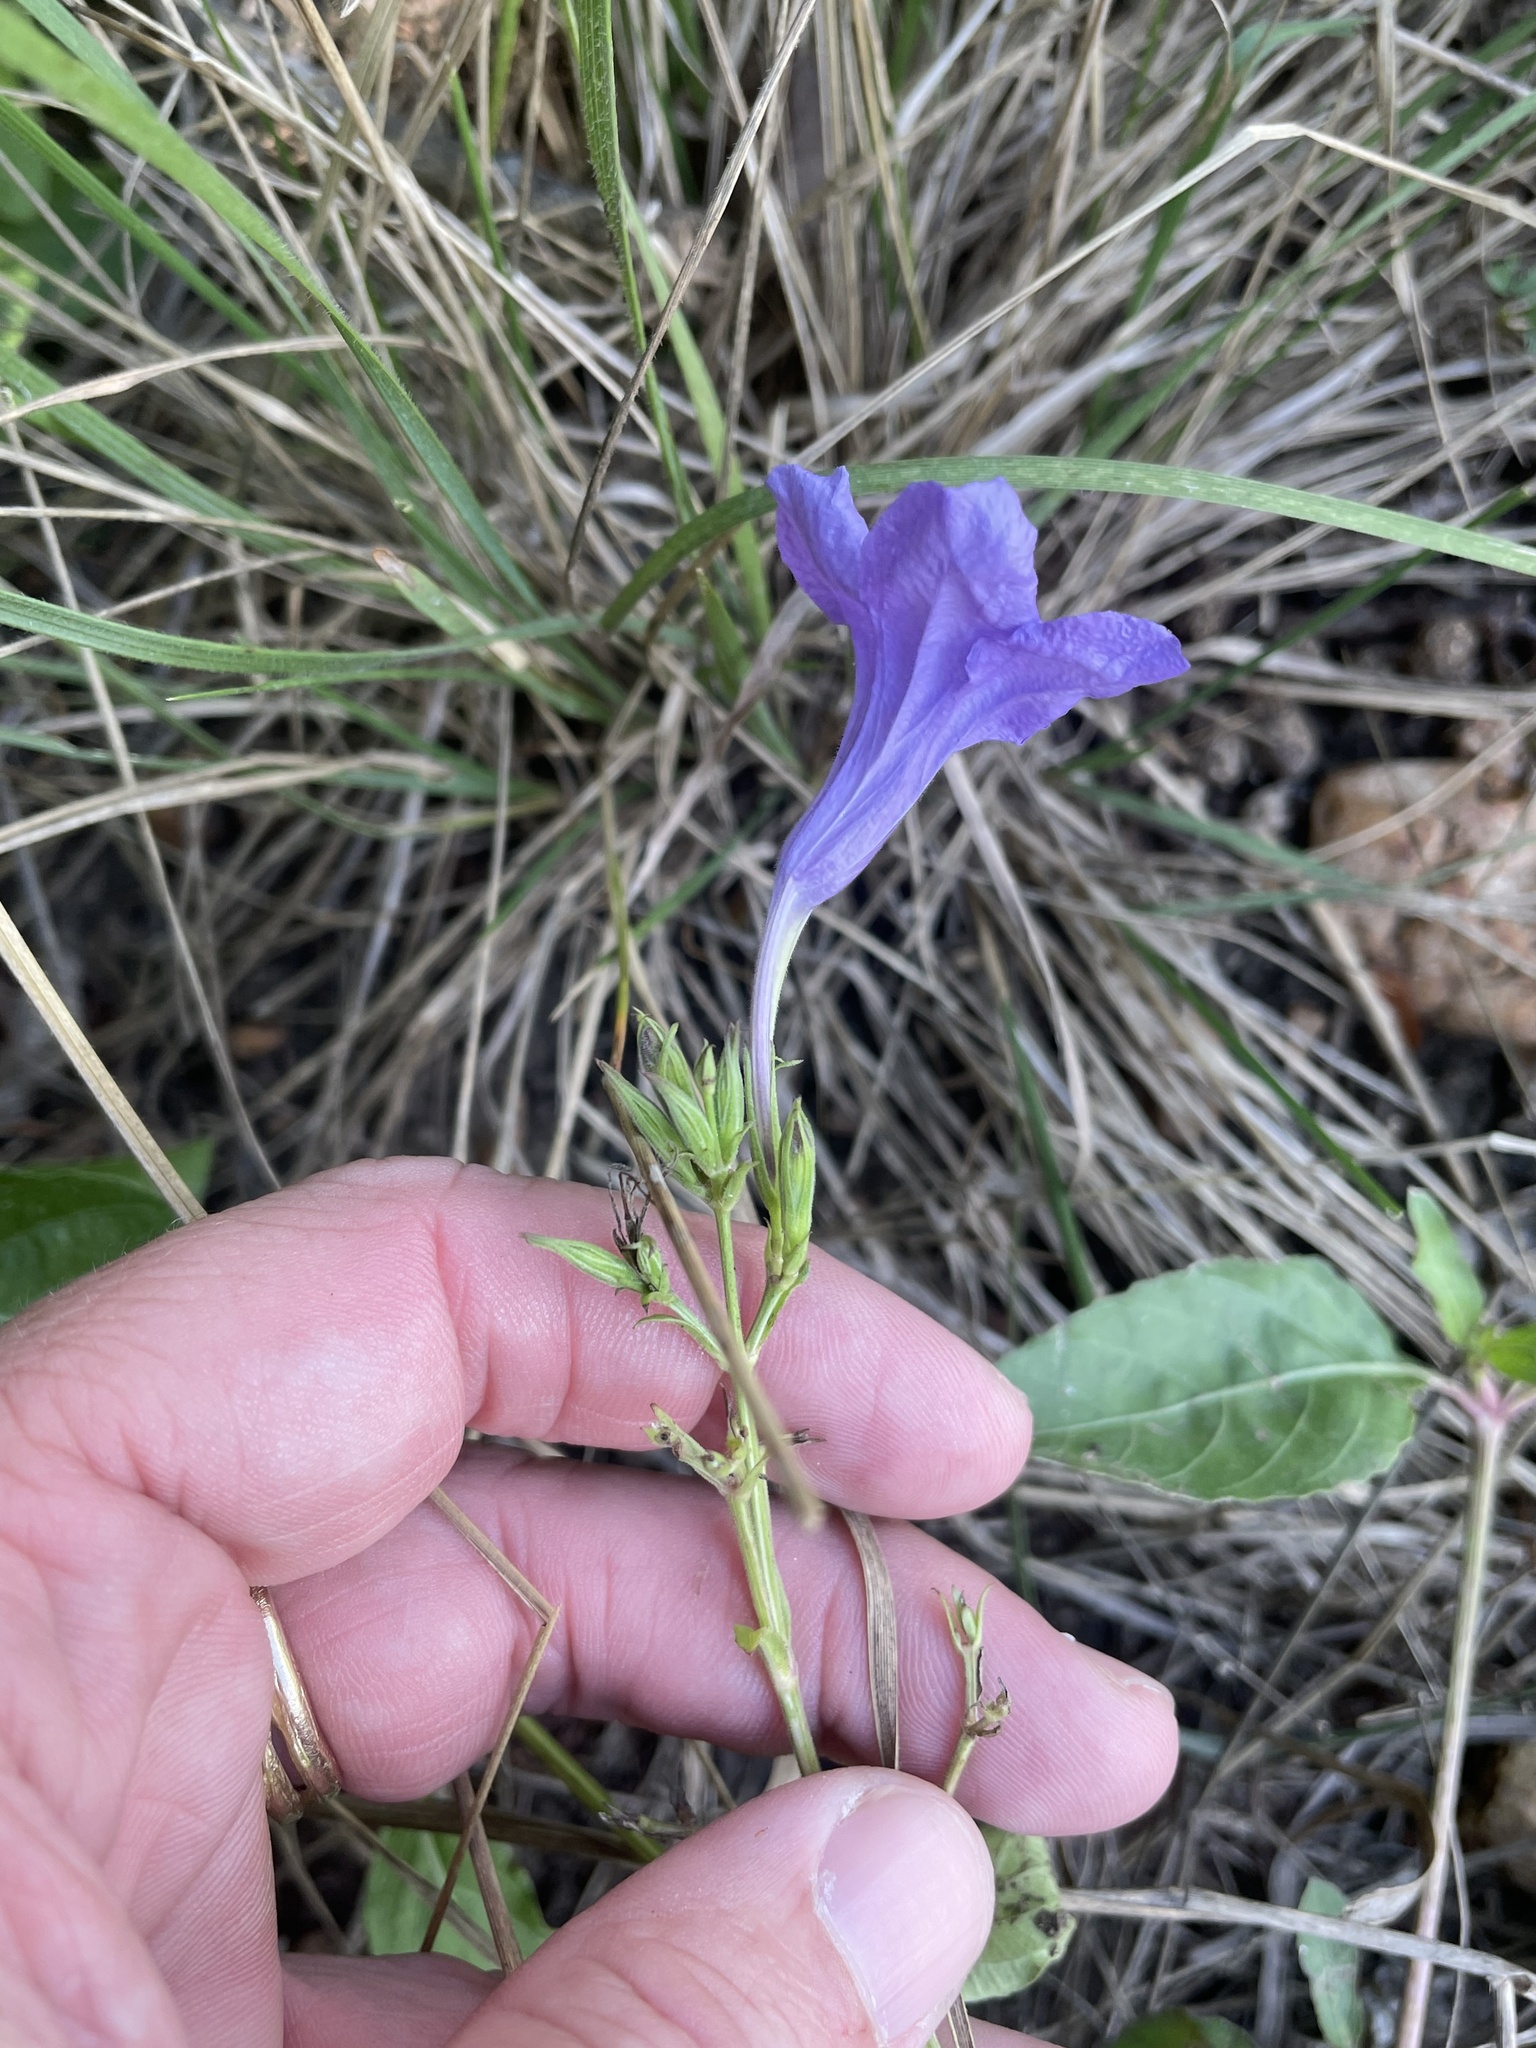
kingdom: Plantae
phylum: Tracheophyta
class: Magnoliopsida
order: Lamiales
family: Acanthaceae
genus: Ruellia
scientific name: Ruellia ciliatiflora
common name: Hairyflower wild petunia
